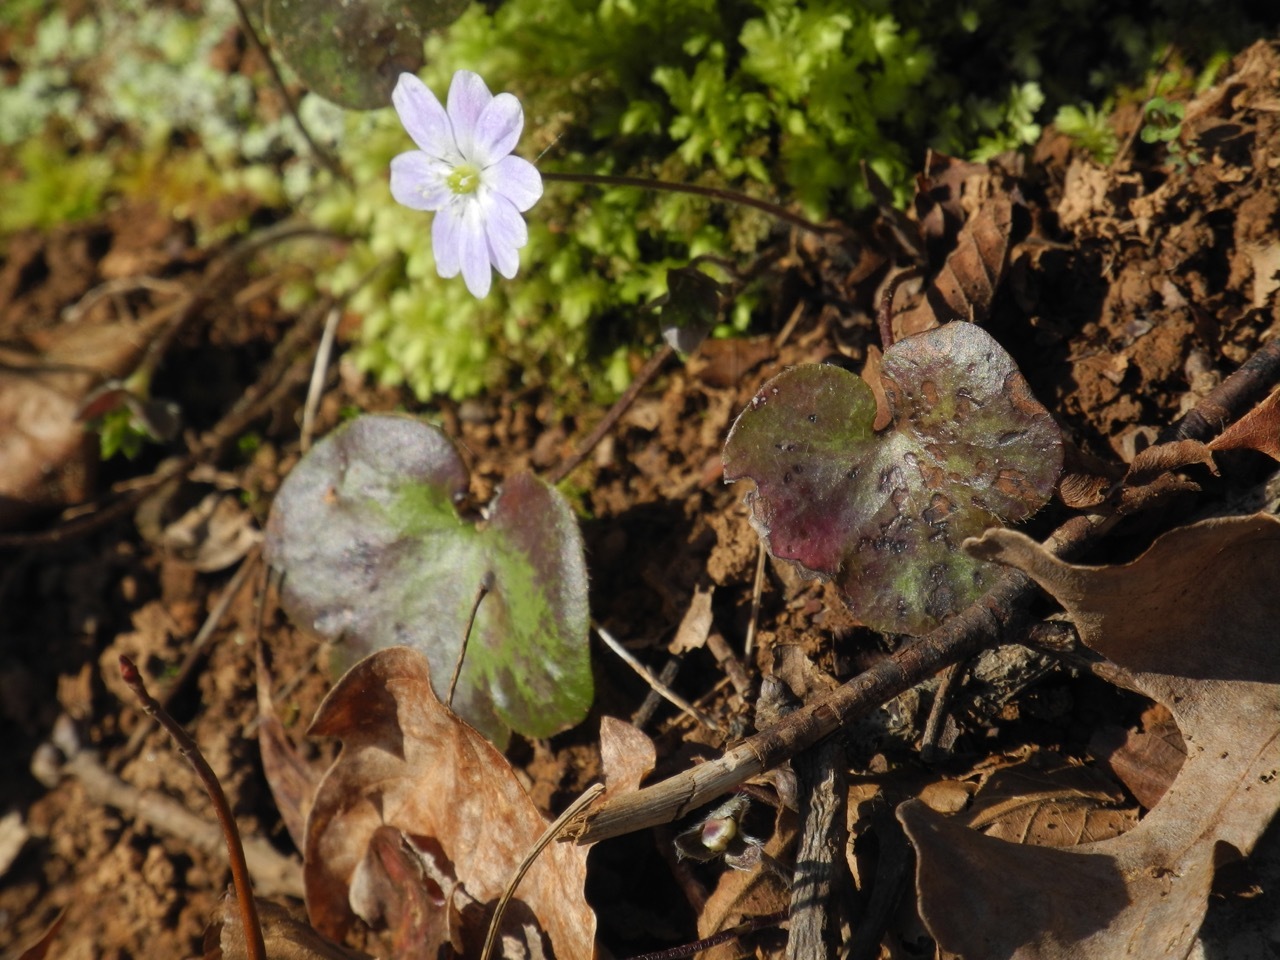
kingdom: Plantae
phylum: Tracheophyta
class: Magnoliopsida
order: Ranunculales
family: Ranunculaceae
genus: Hepatica
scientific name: Hepatica americana
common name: American hepatica
